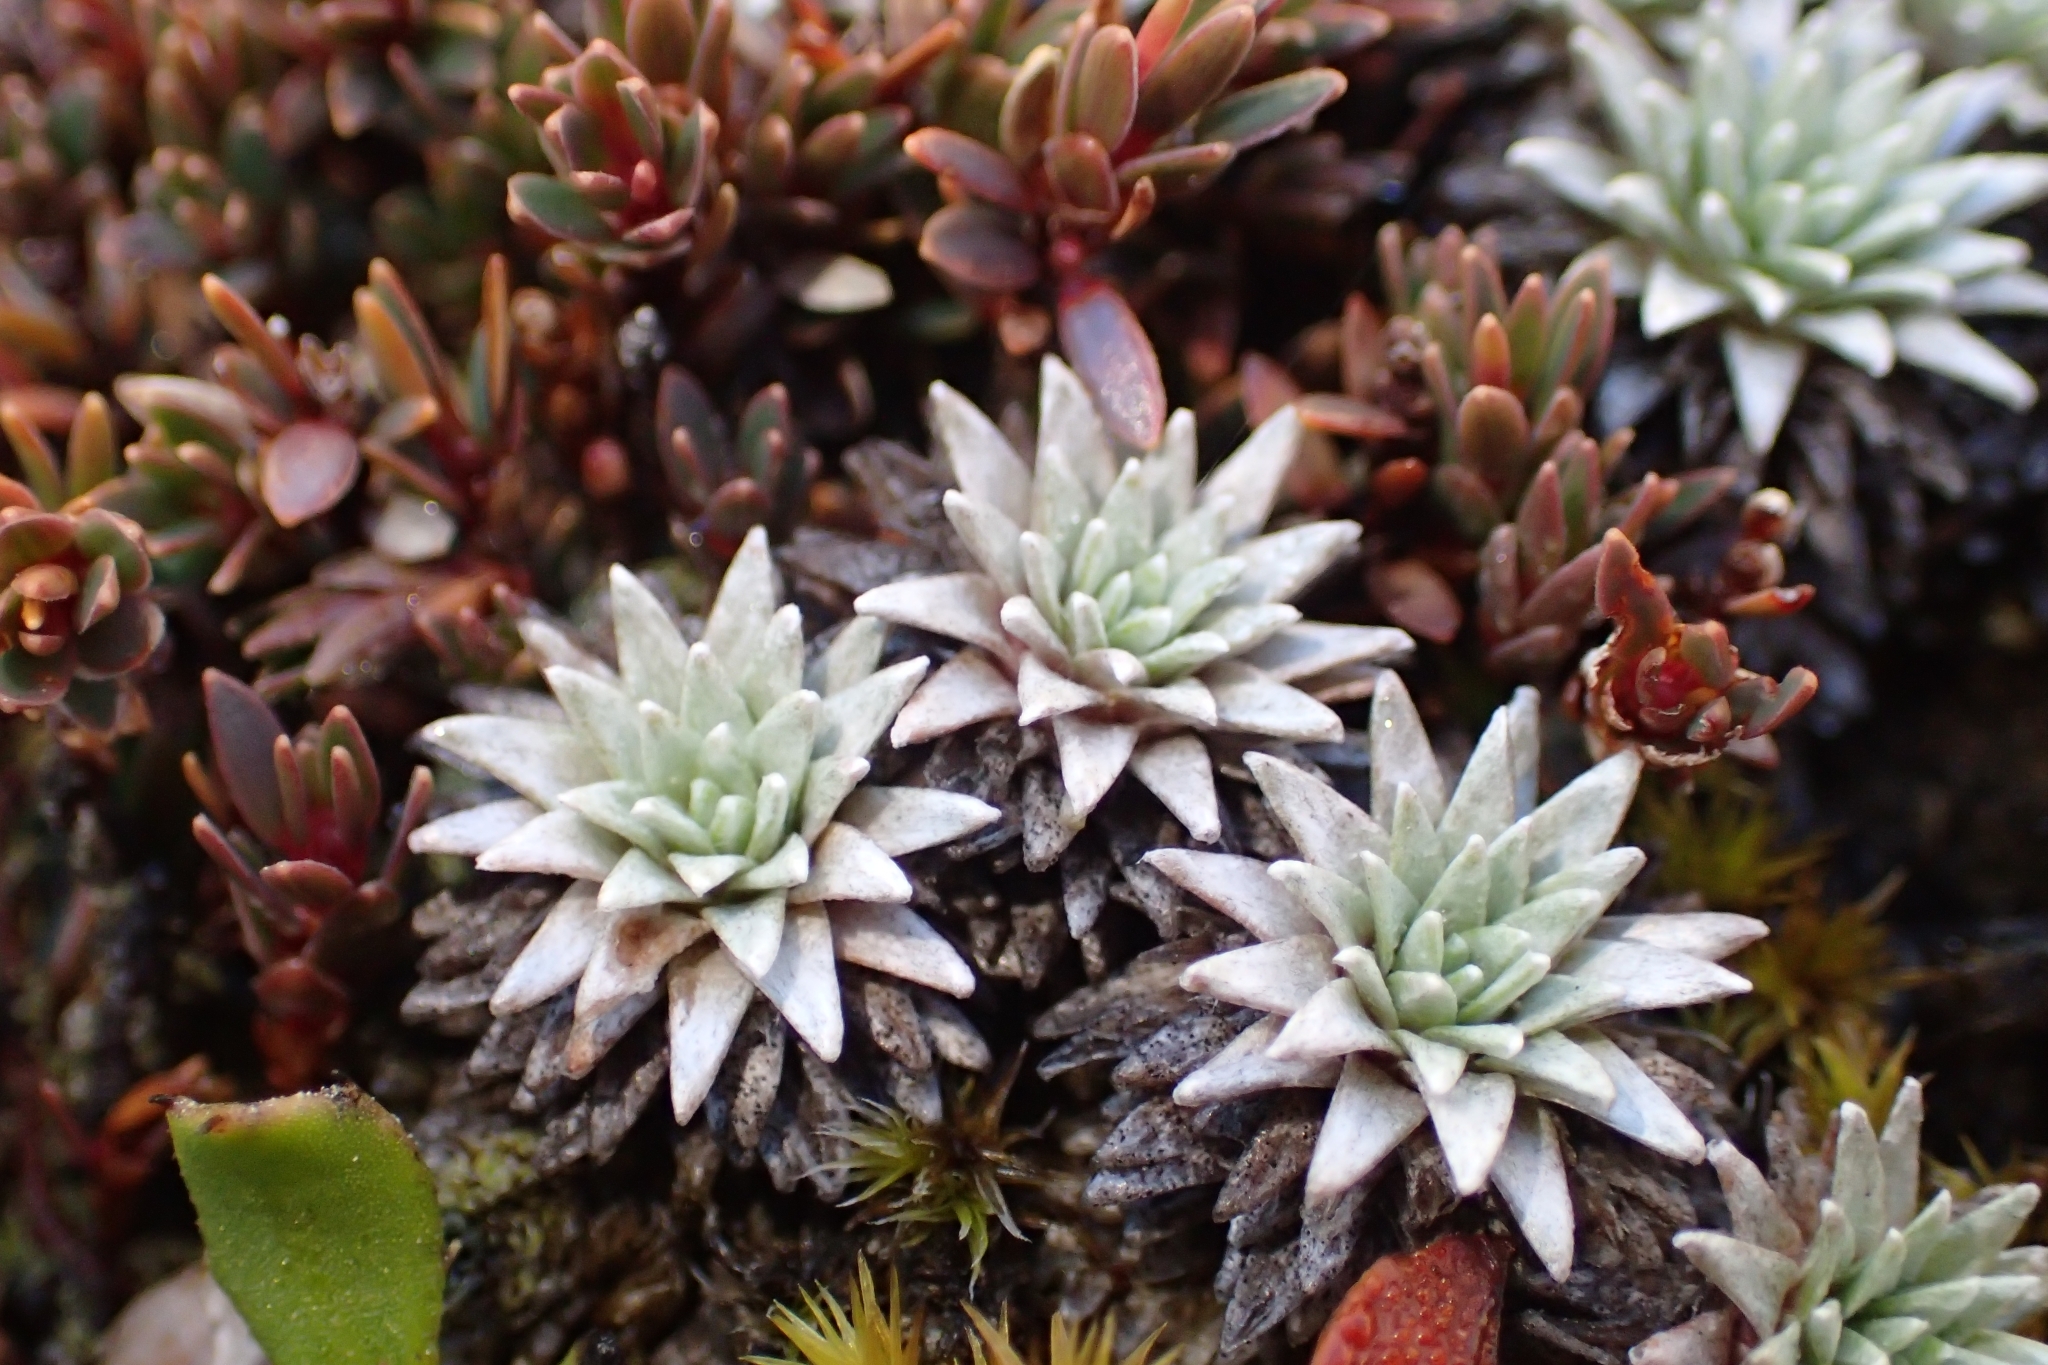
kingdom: Plantae
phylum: Tracheophyta
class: Magnoliopsida
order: Asterales
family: Asteraceae
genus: Raoulia
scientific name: Raoulia grandiflora
